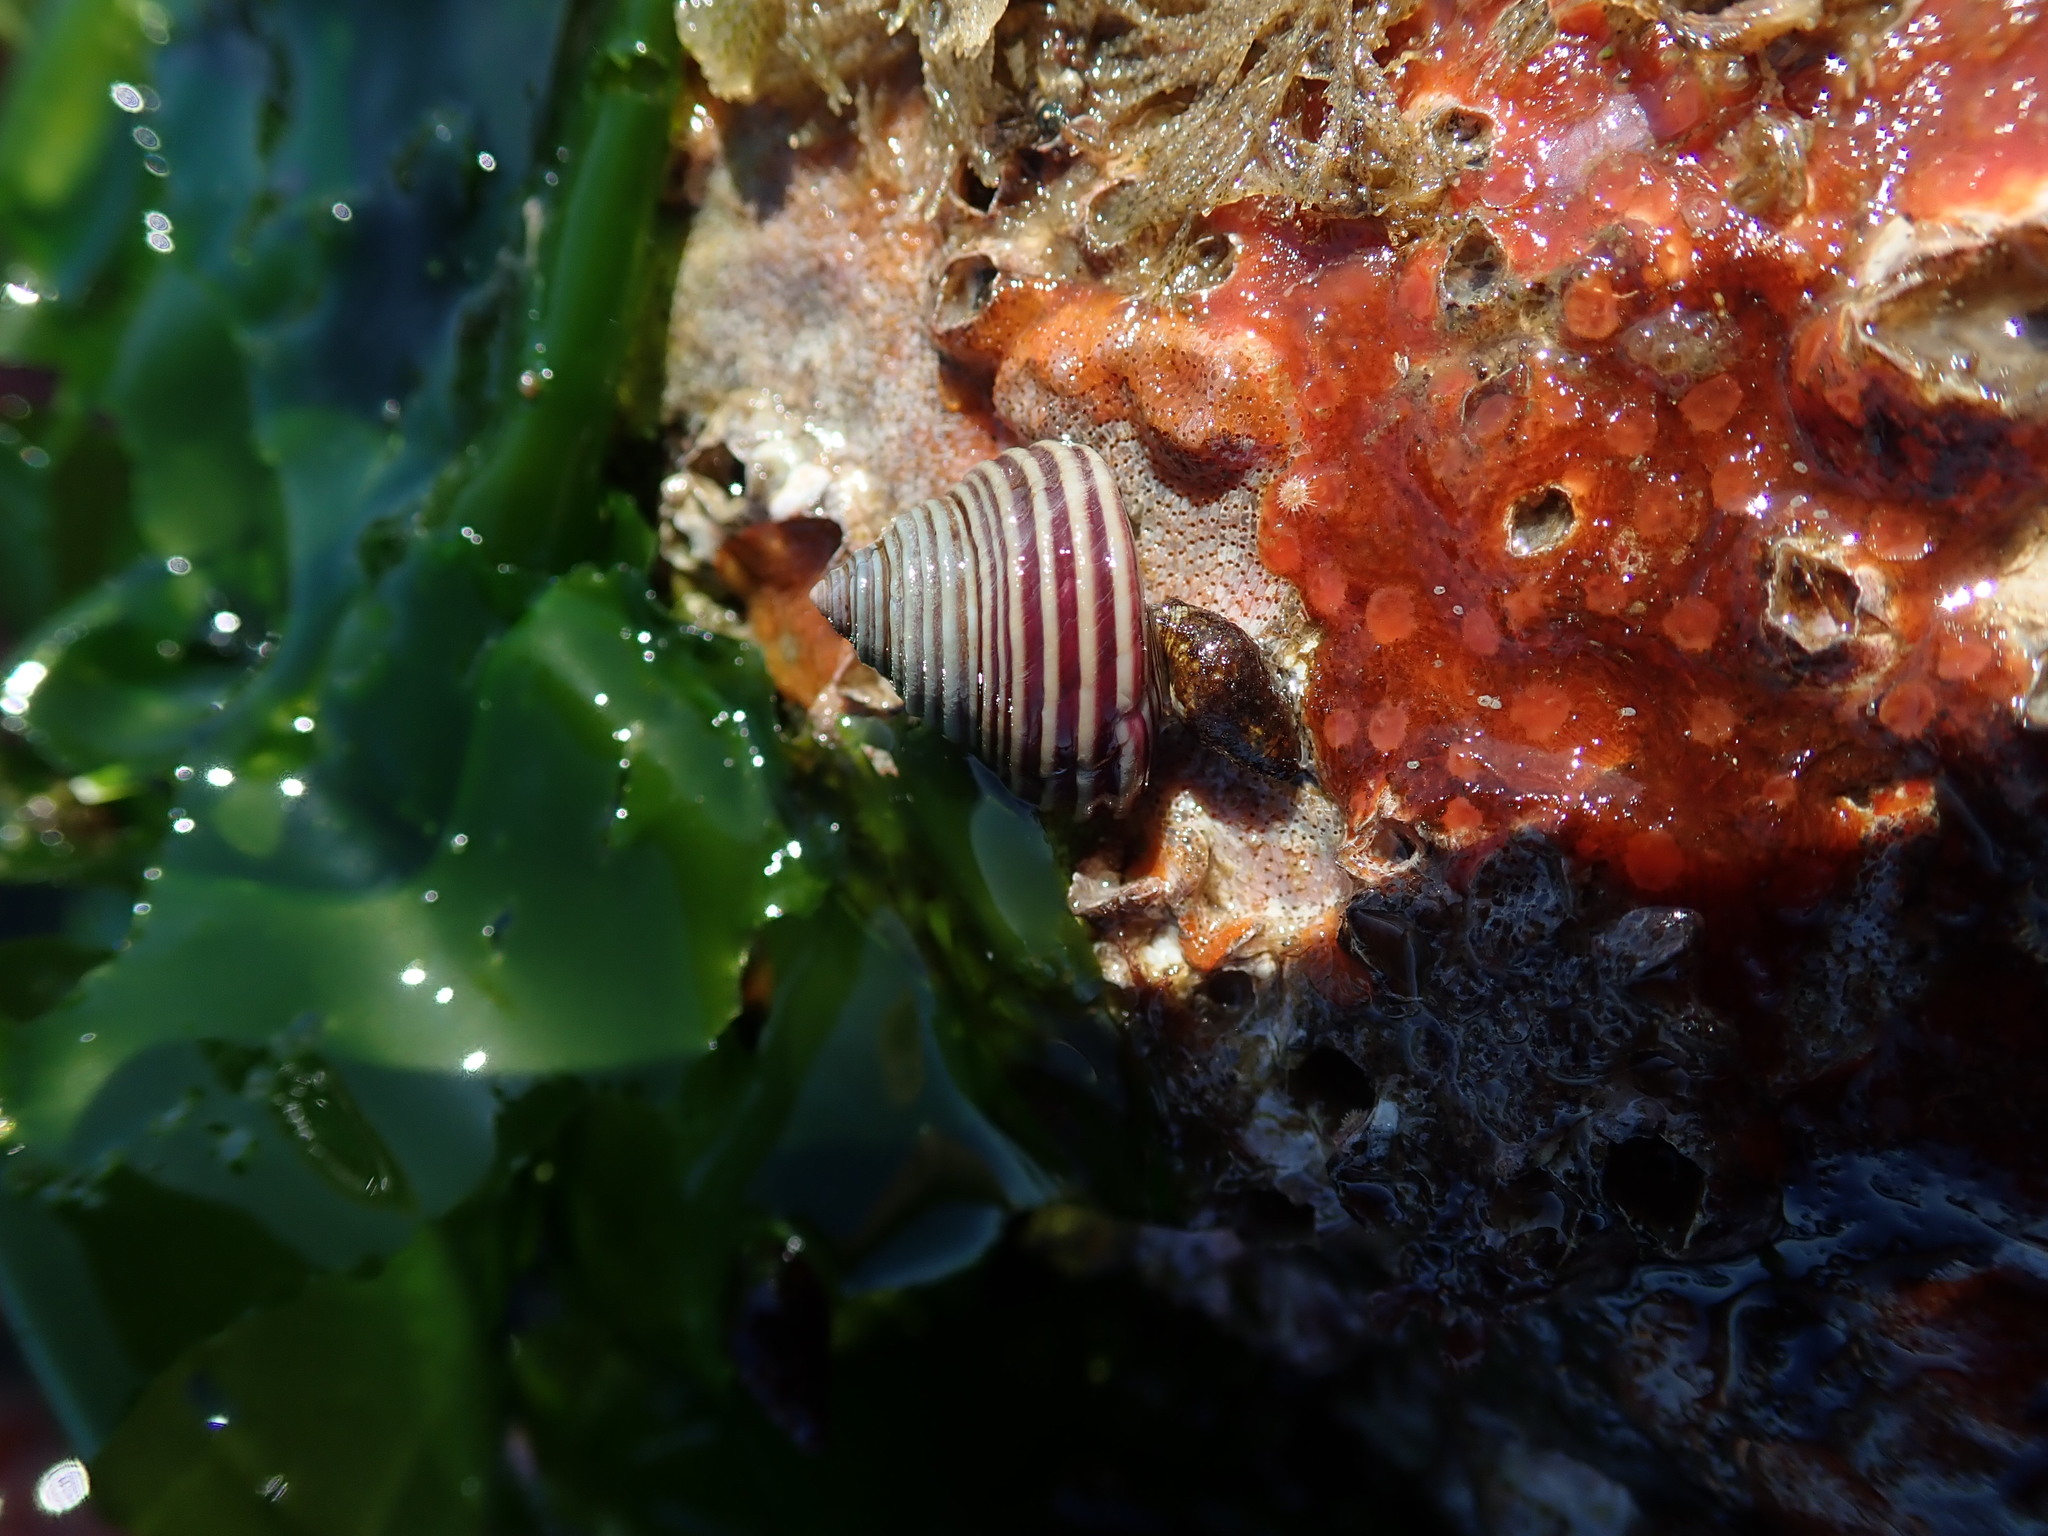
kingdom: Animalia
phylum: Mollusca
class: Gastropoda
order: Trochida
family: Calliostomatidae
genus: Calliostoma
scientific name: Calliostoma canaliculatum
